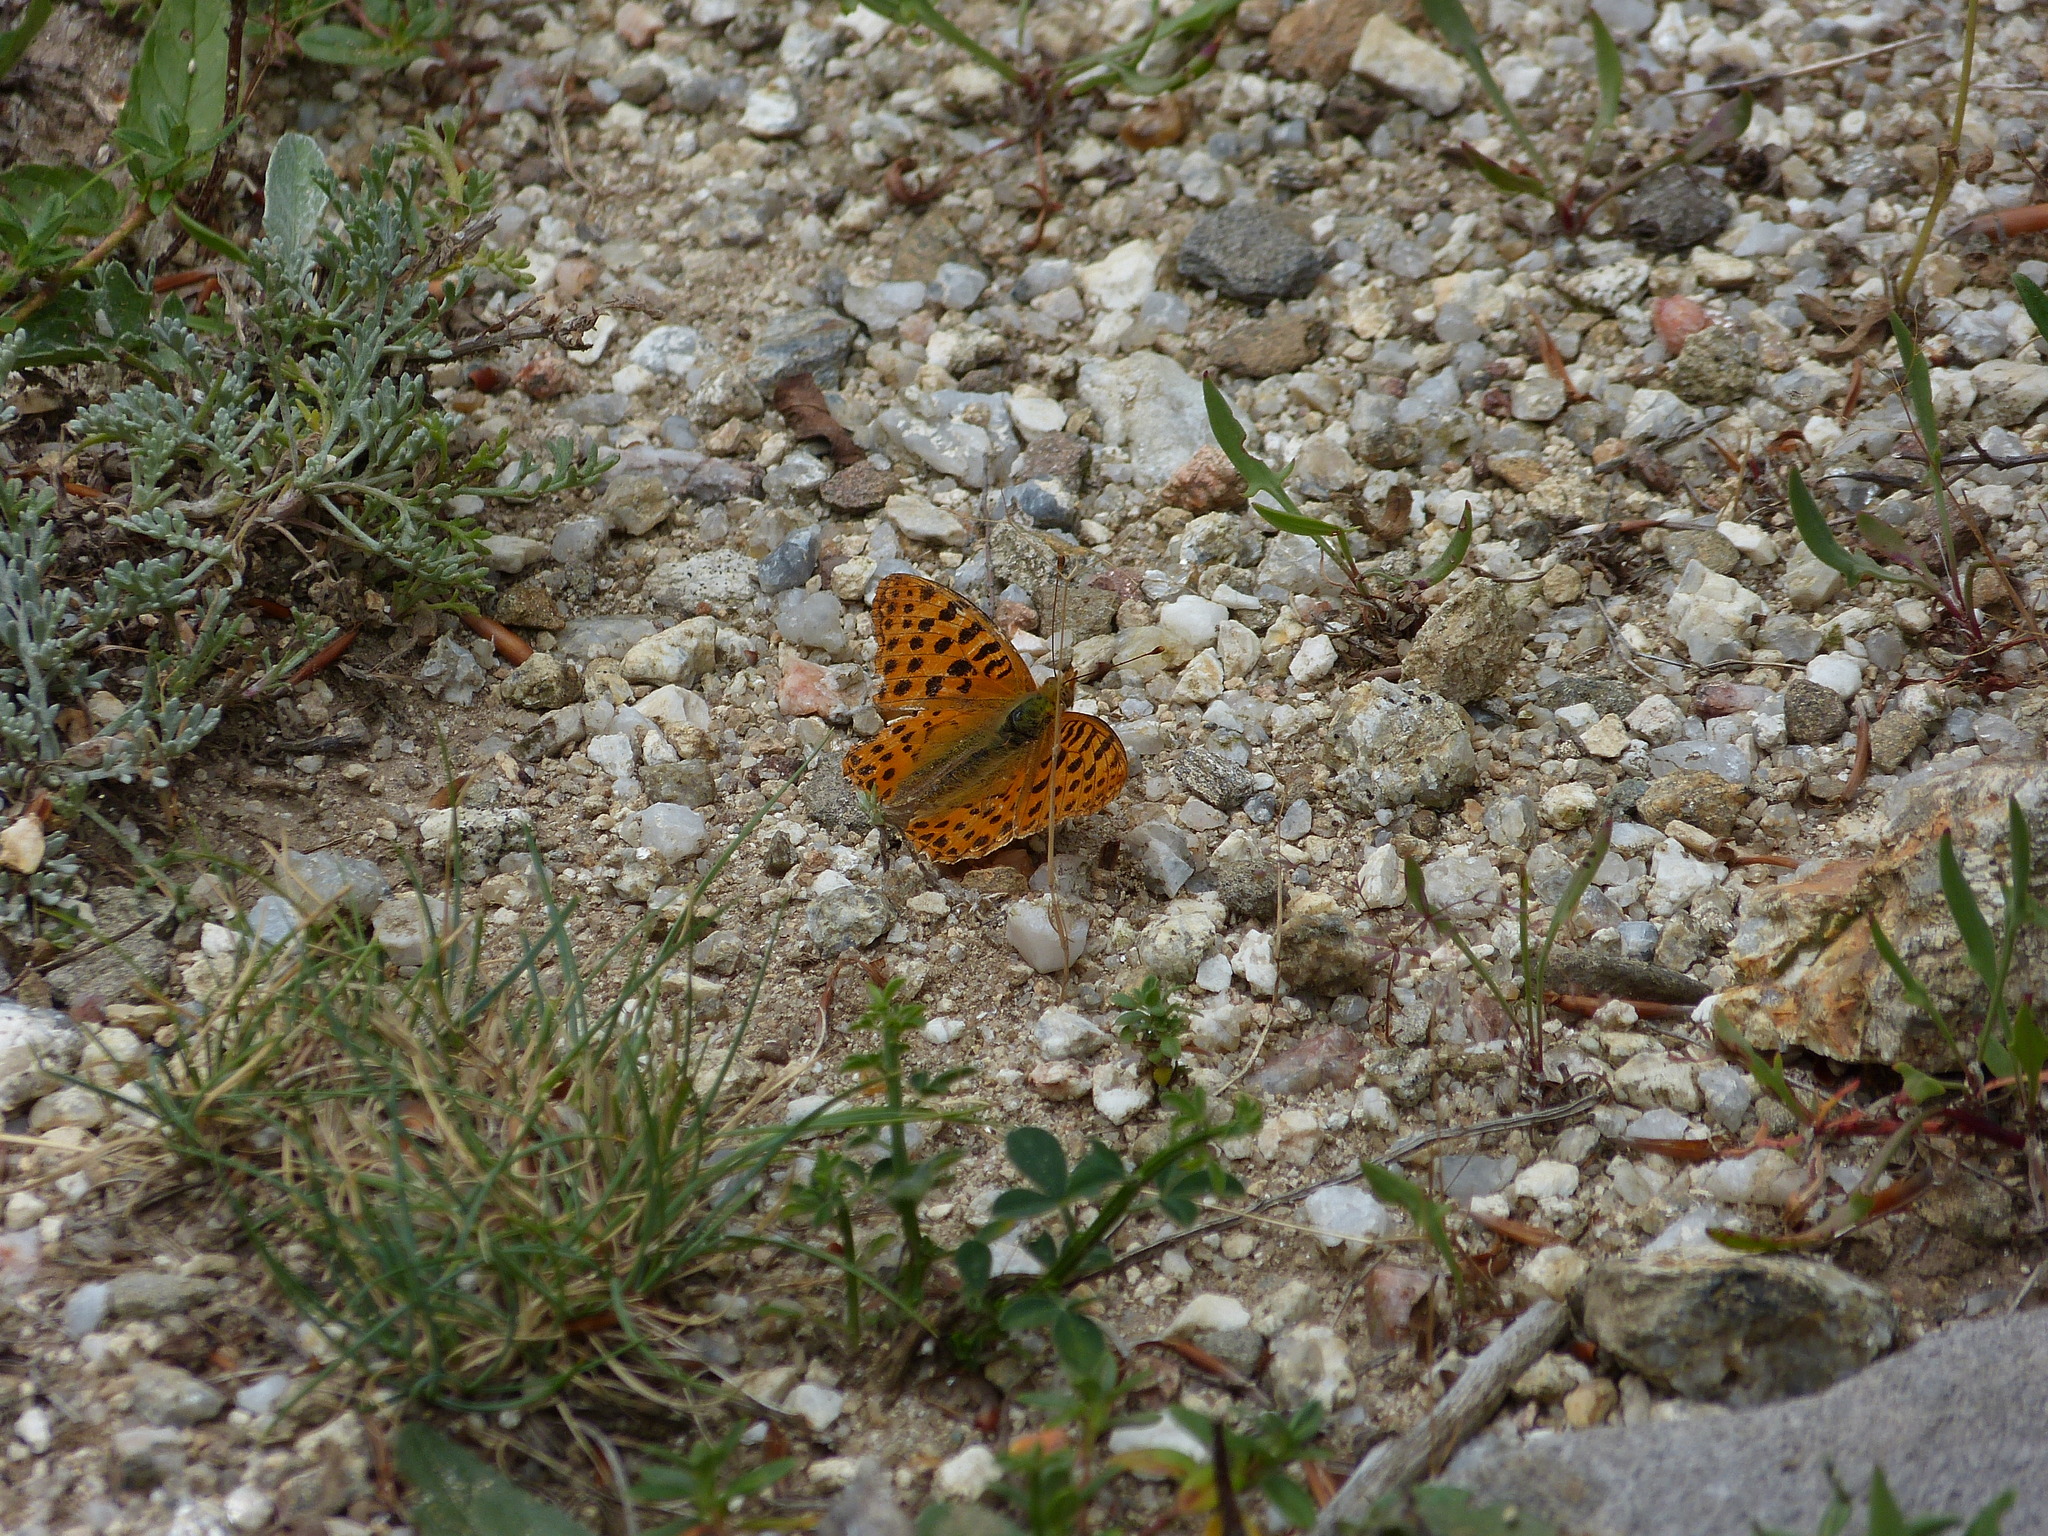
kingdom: Animalia
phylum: Arthropoda
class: Insecta
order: Lepidoptera
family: Nymphalidae
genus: Issoria
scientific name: Issoria lathonia
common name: Queen of spain fritillary
